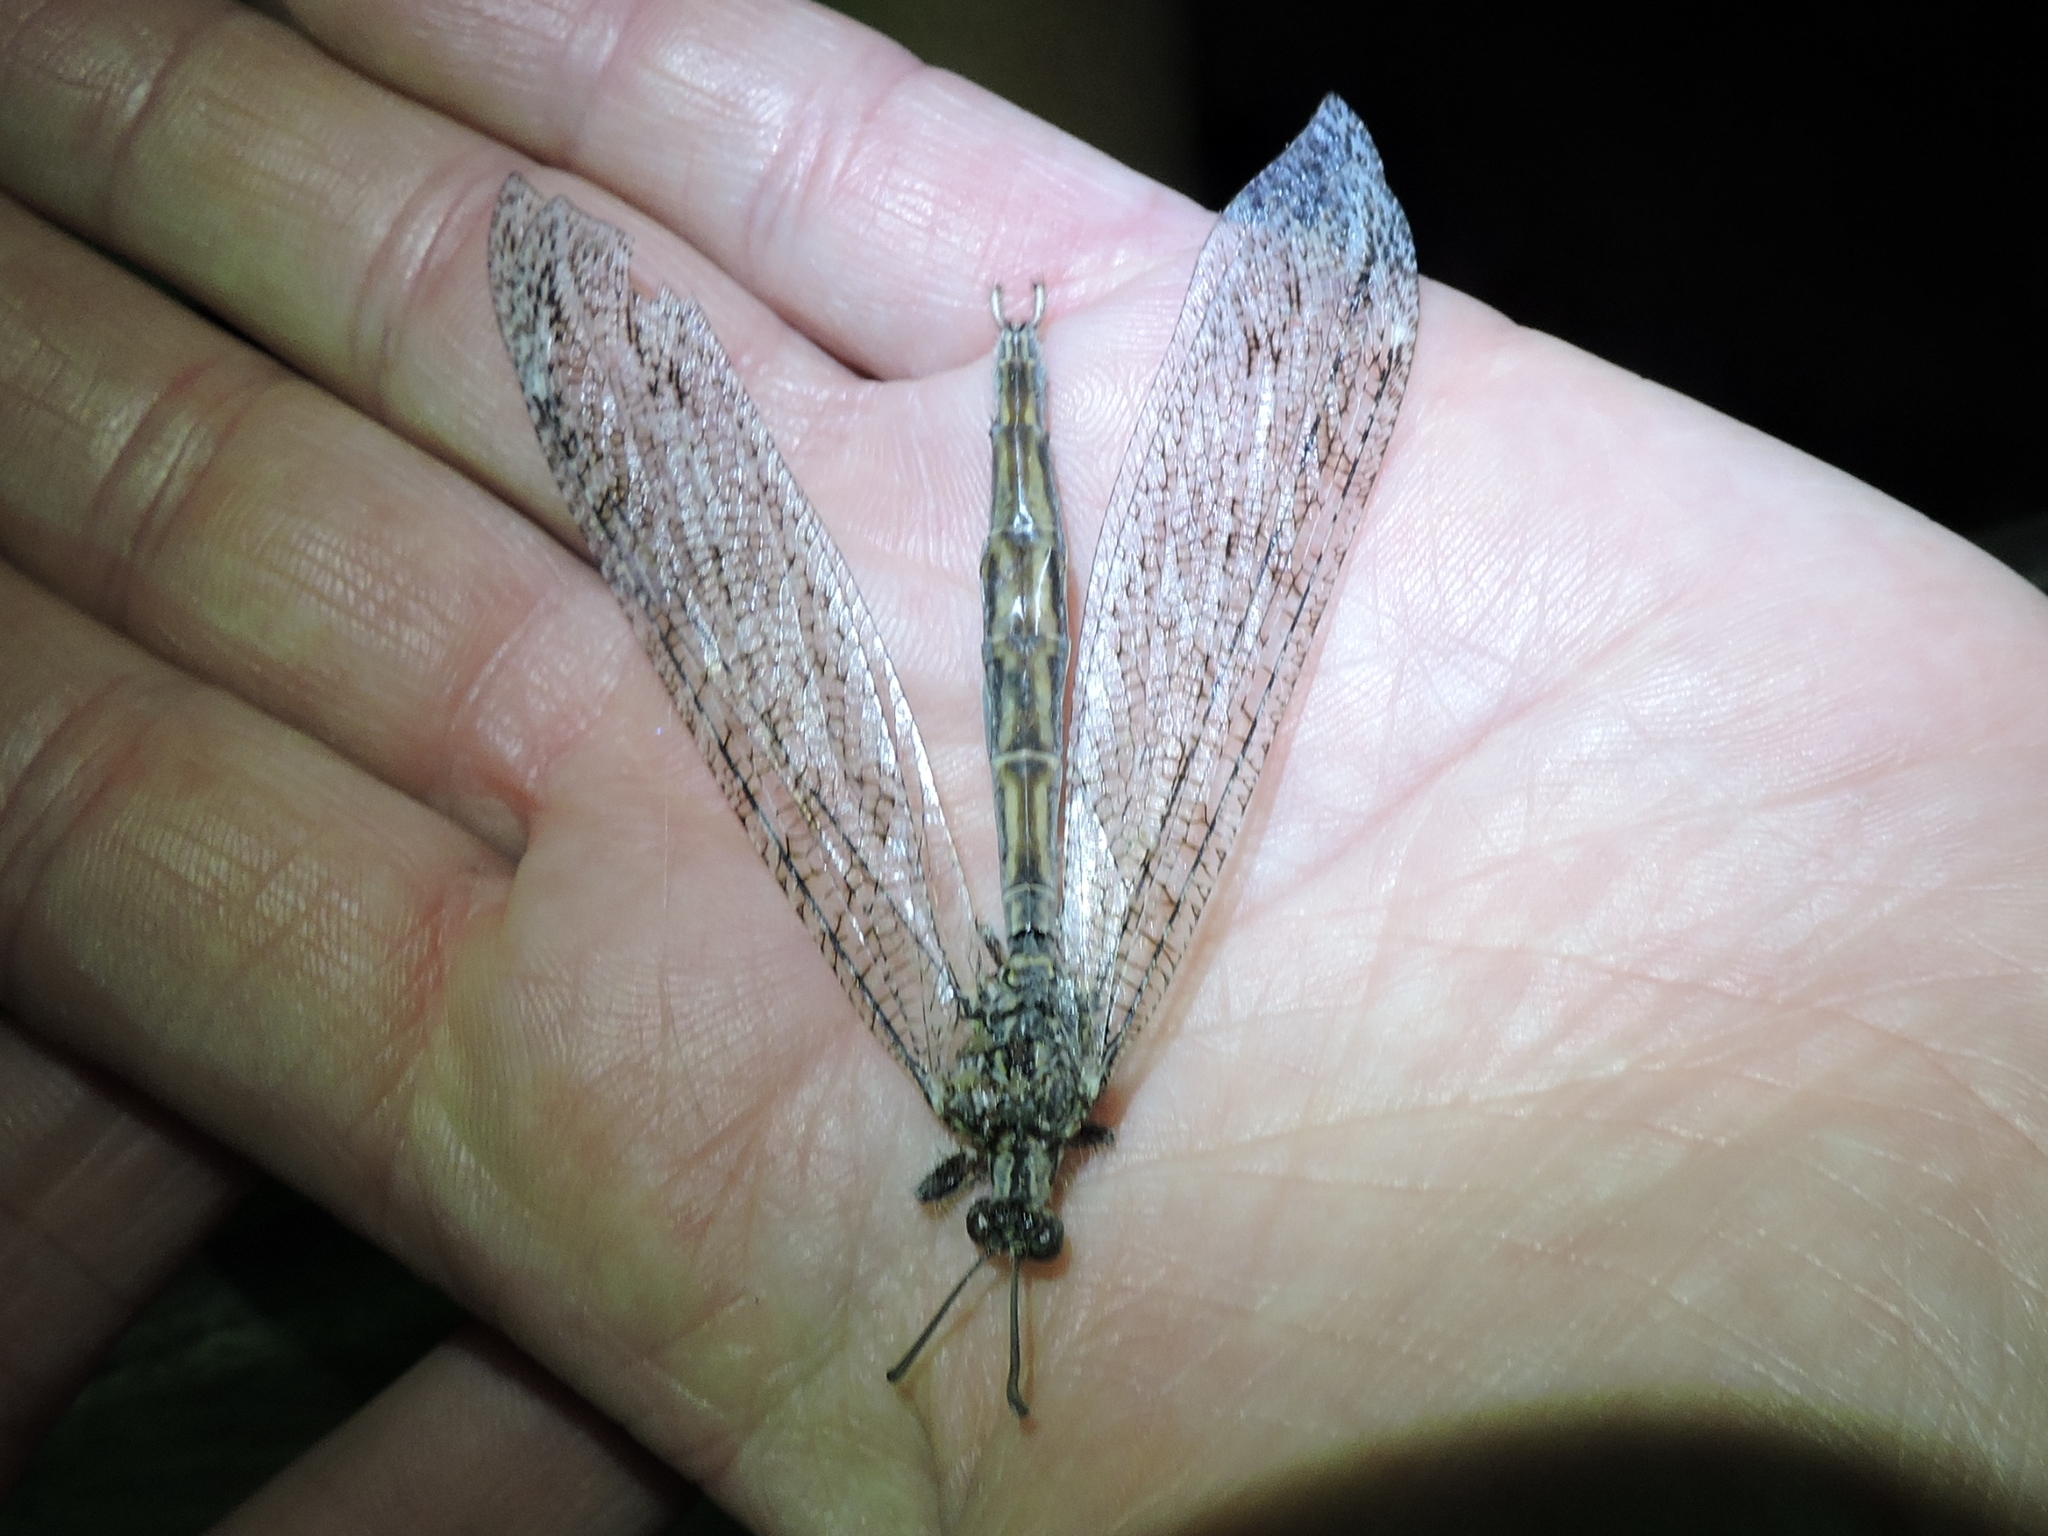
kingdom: Animalia
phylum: Arthropoda
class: Insecta
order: Neuroptera
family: Myrmeleontidae
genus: Vella
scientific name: Vella fallax
